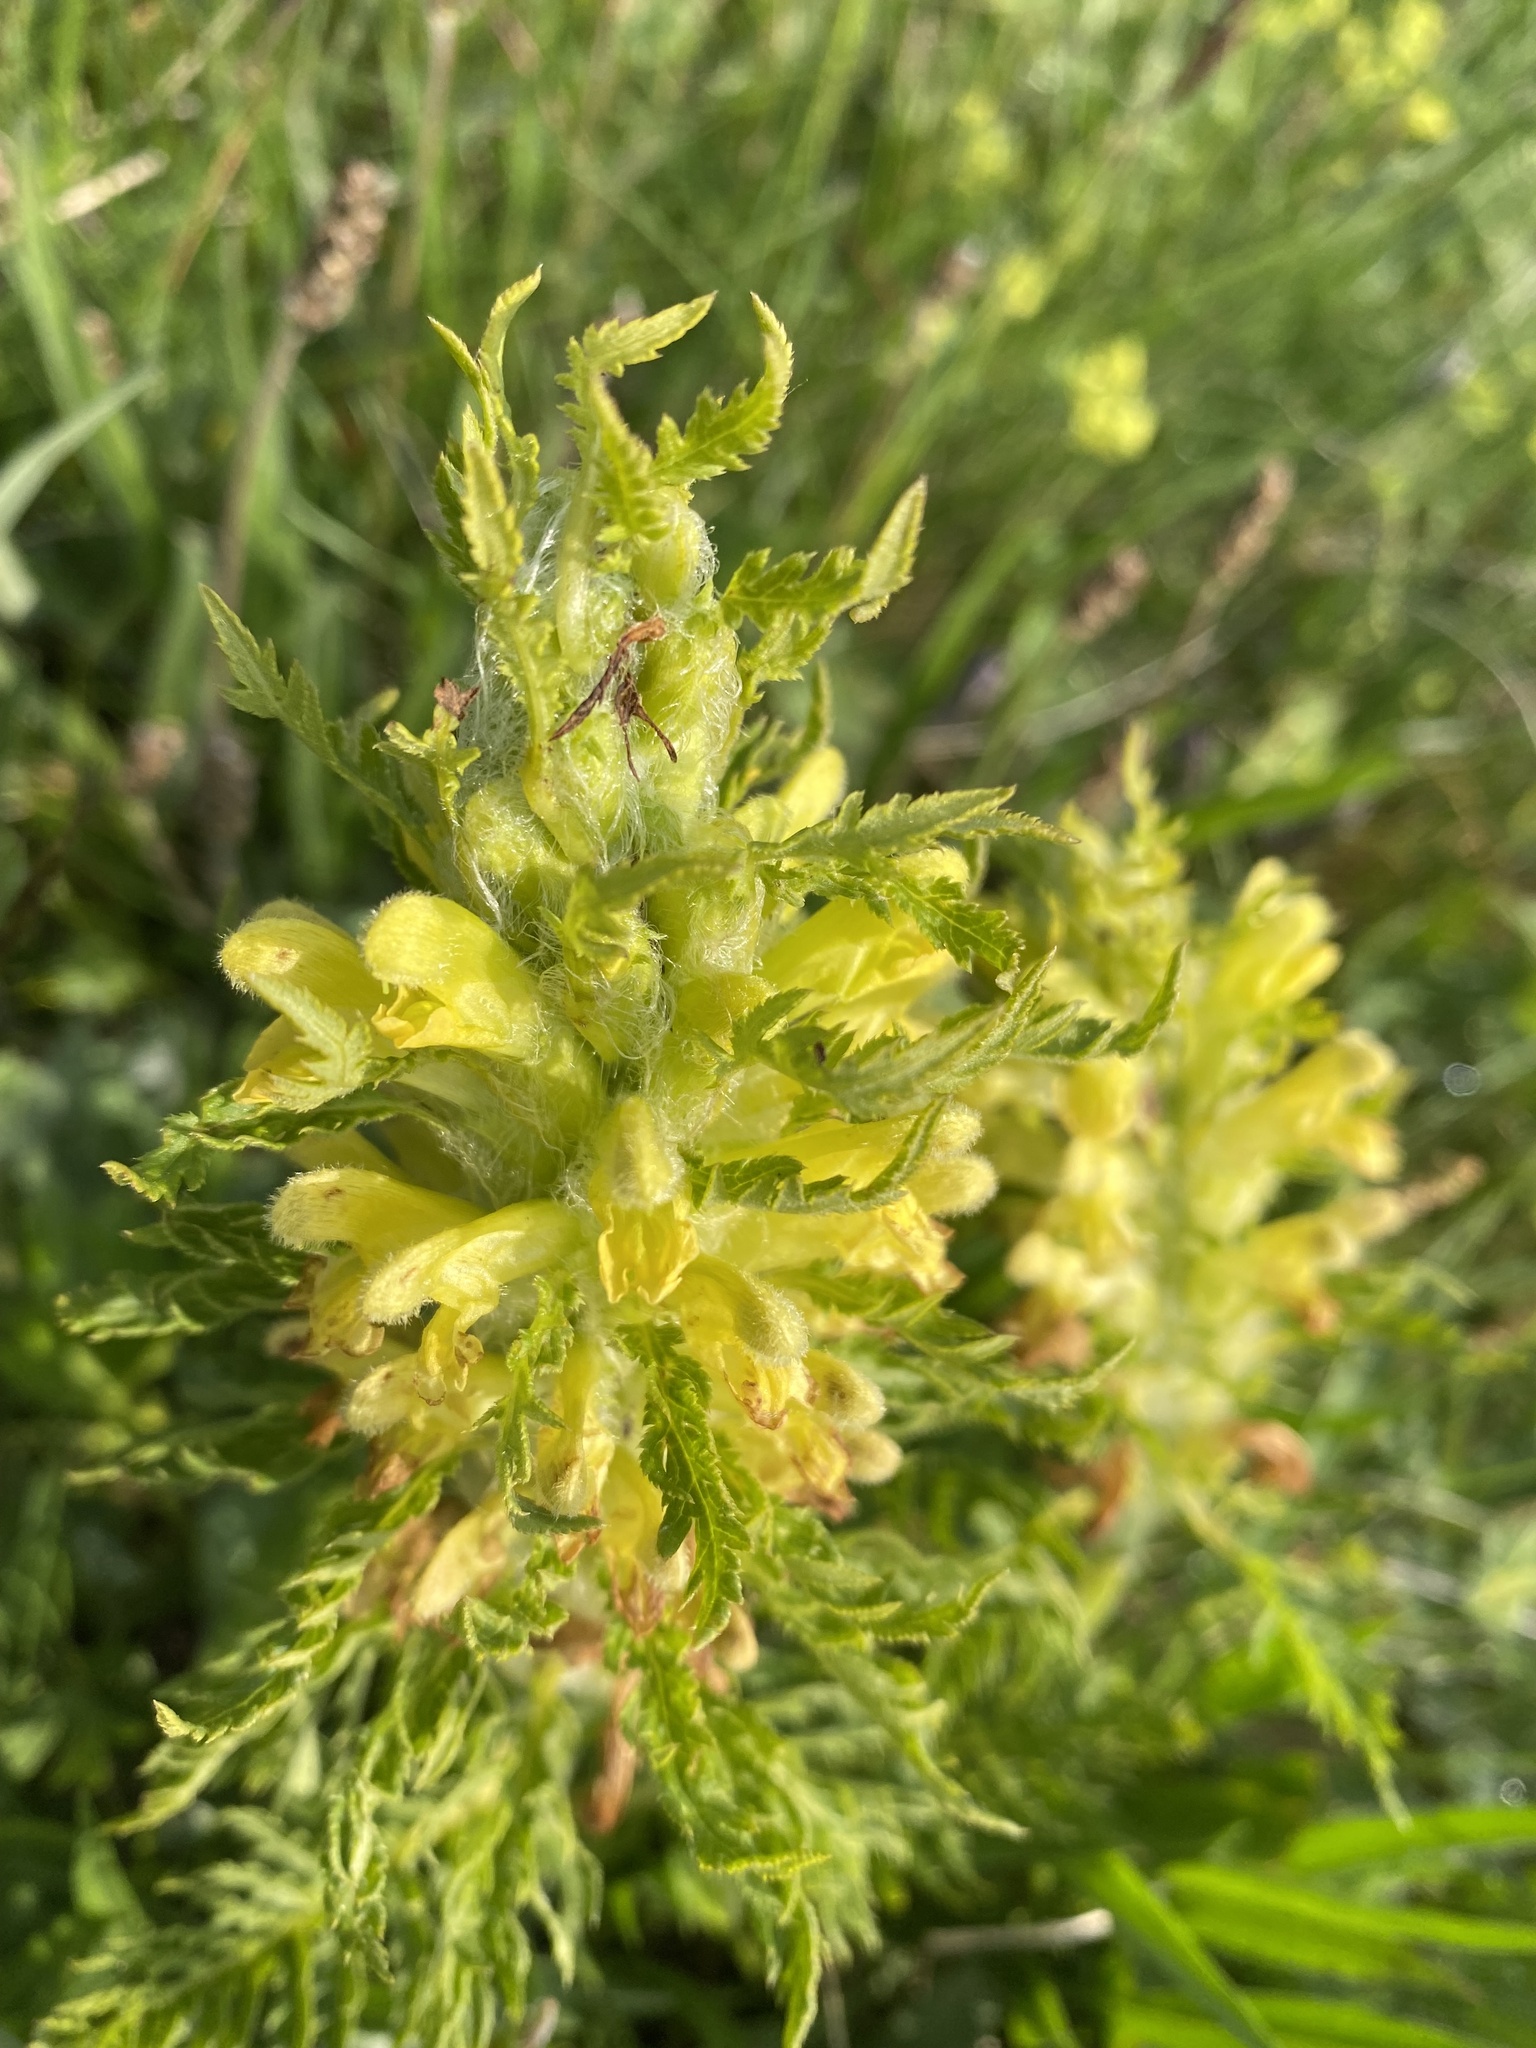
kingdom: Plantae
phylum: Tracheophyta
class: Magnoliopsida
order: Lamiales
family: Orobanchaceae
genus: Pedicularis
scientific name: Pedicularis condensata
